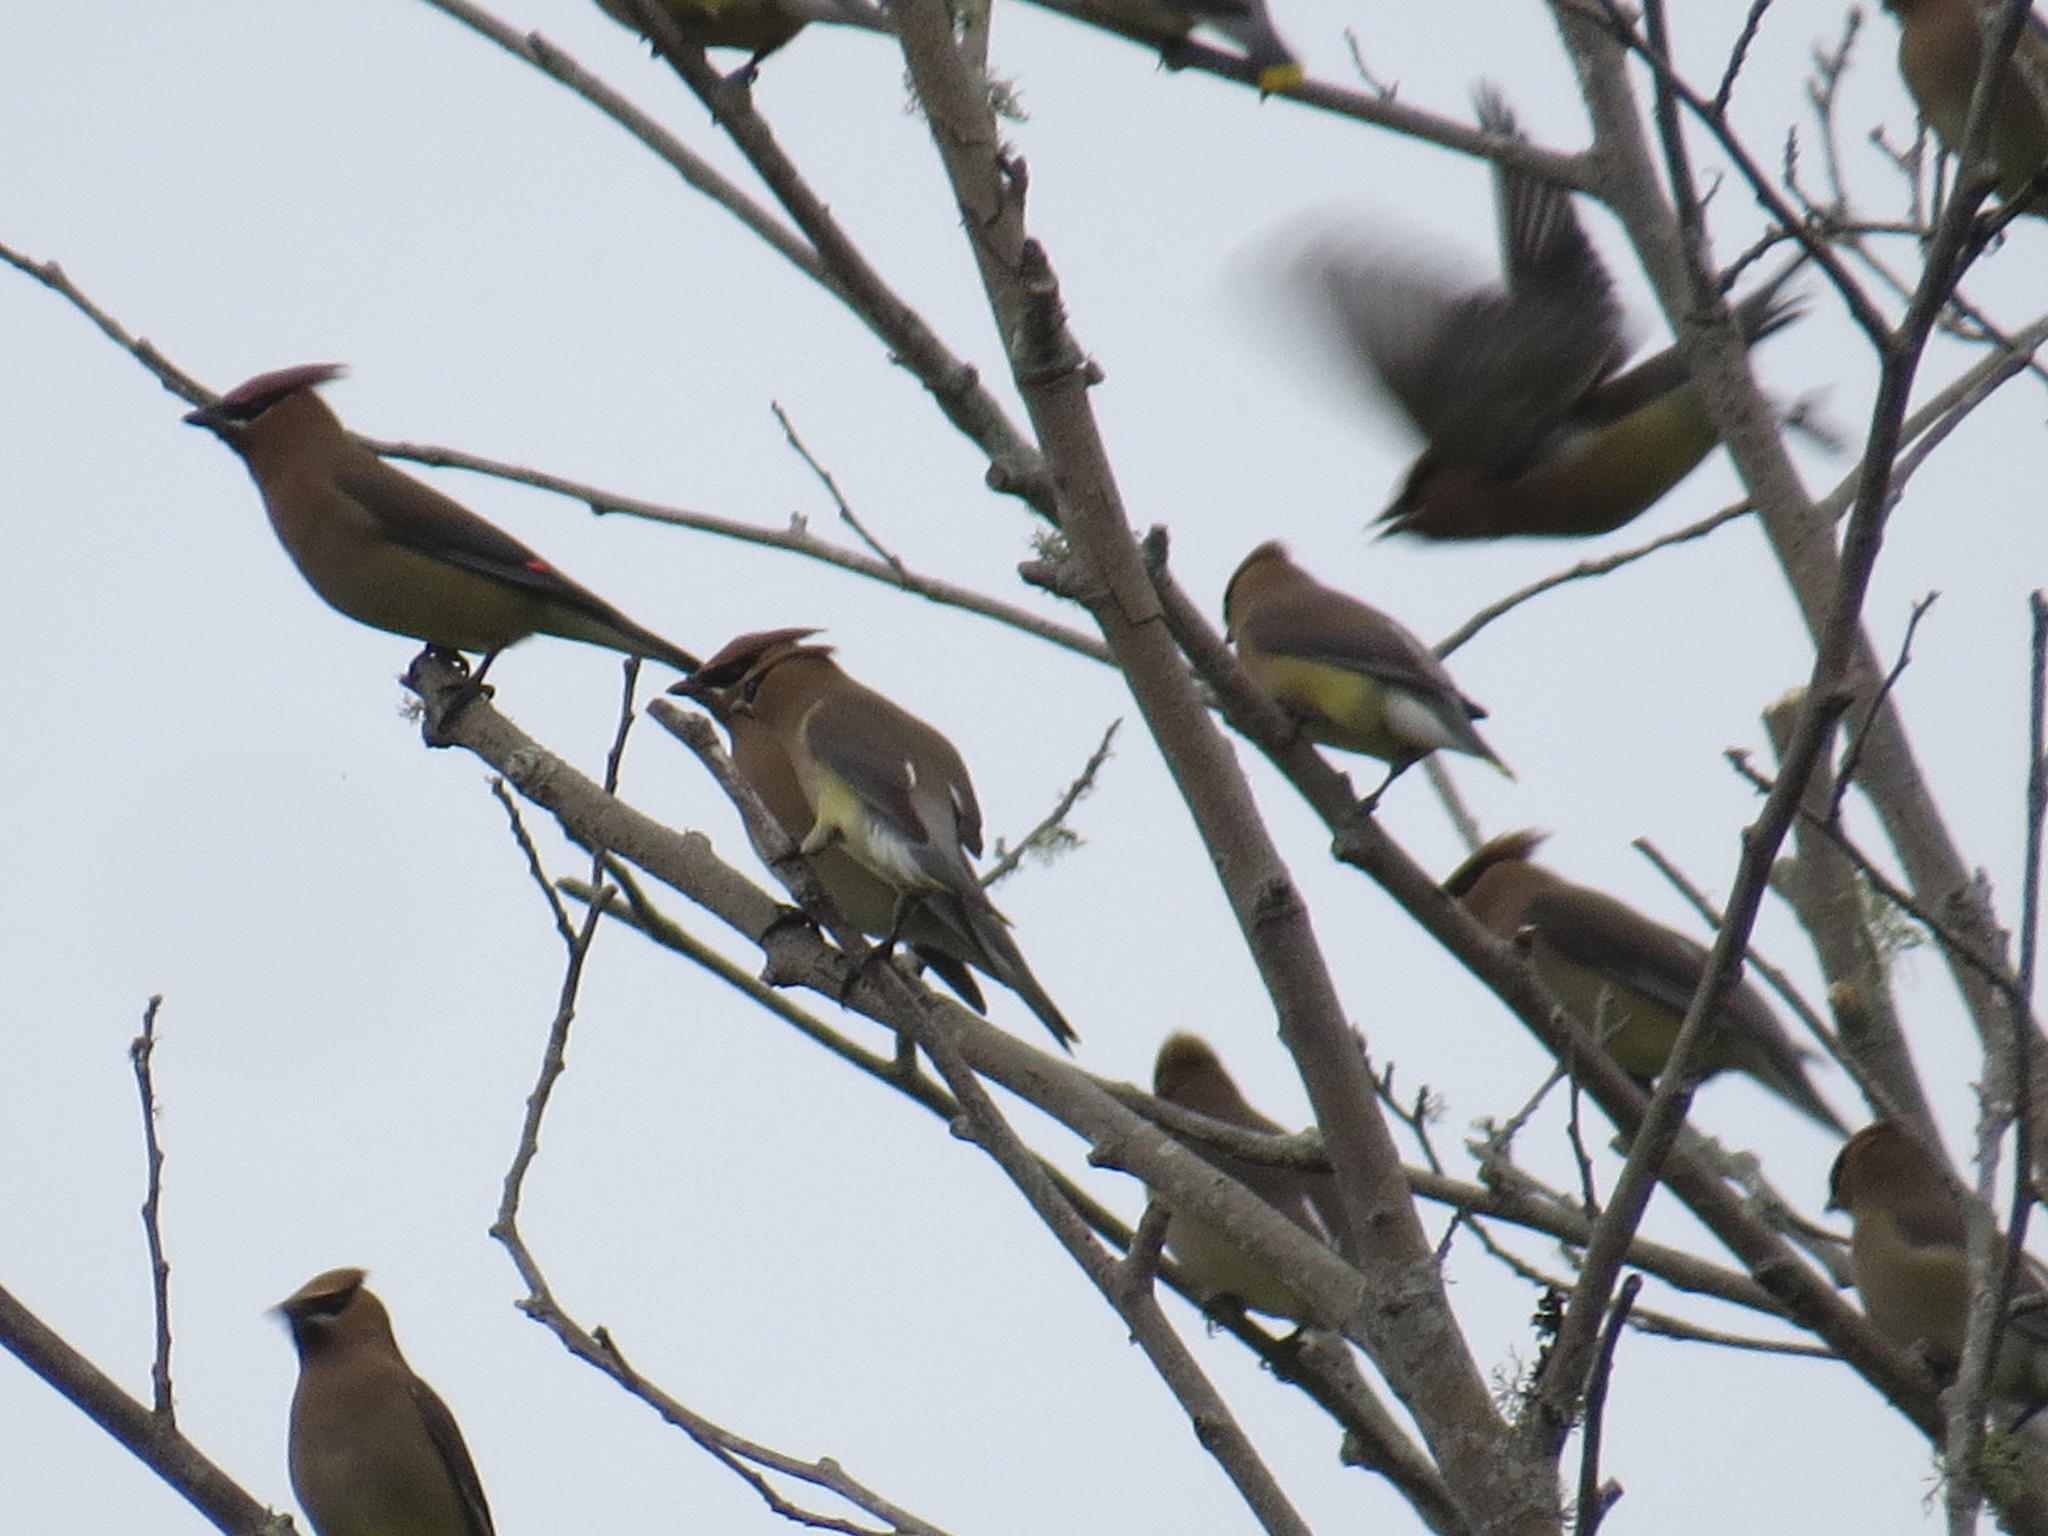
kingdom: Animalia
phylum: Chordata
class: Aves
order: Passeriformes
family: Bombycillidae
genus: Bombycilla
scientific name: Bombycilla cedrorum
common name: Cedar waxwing
